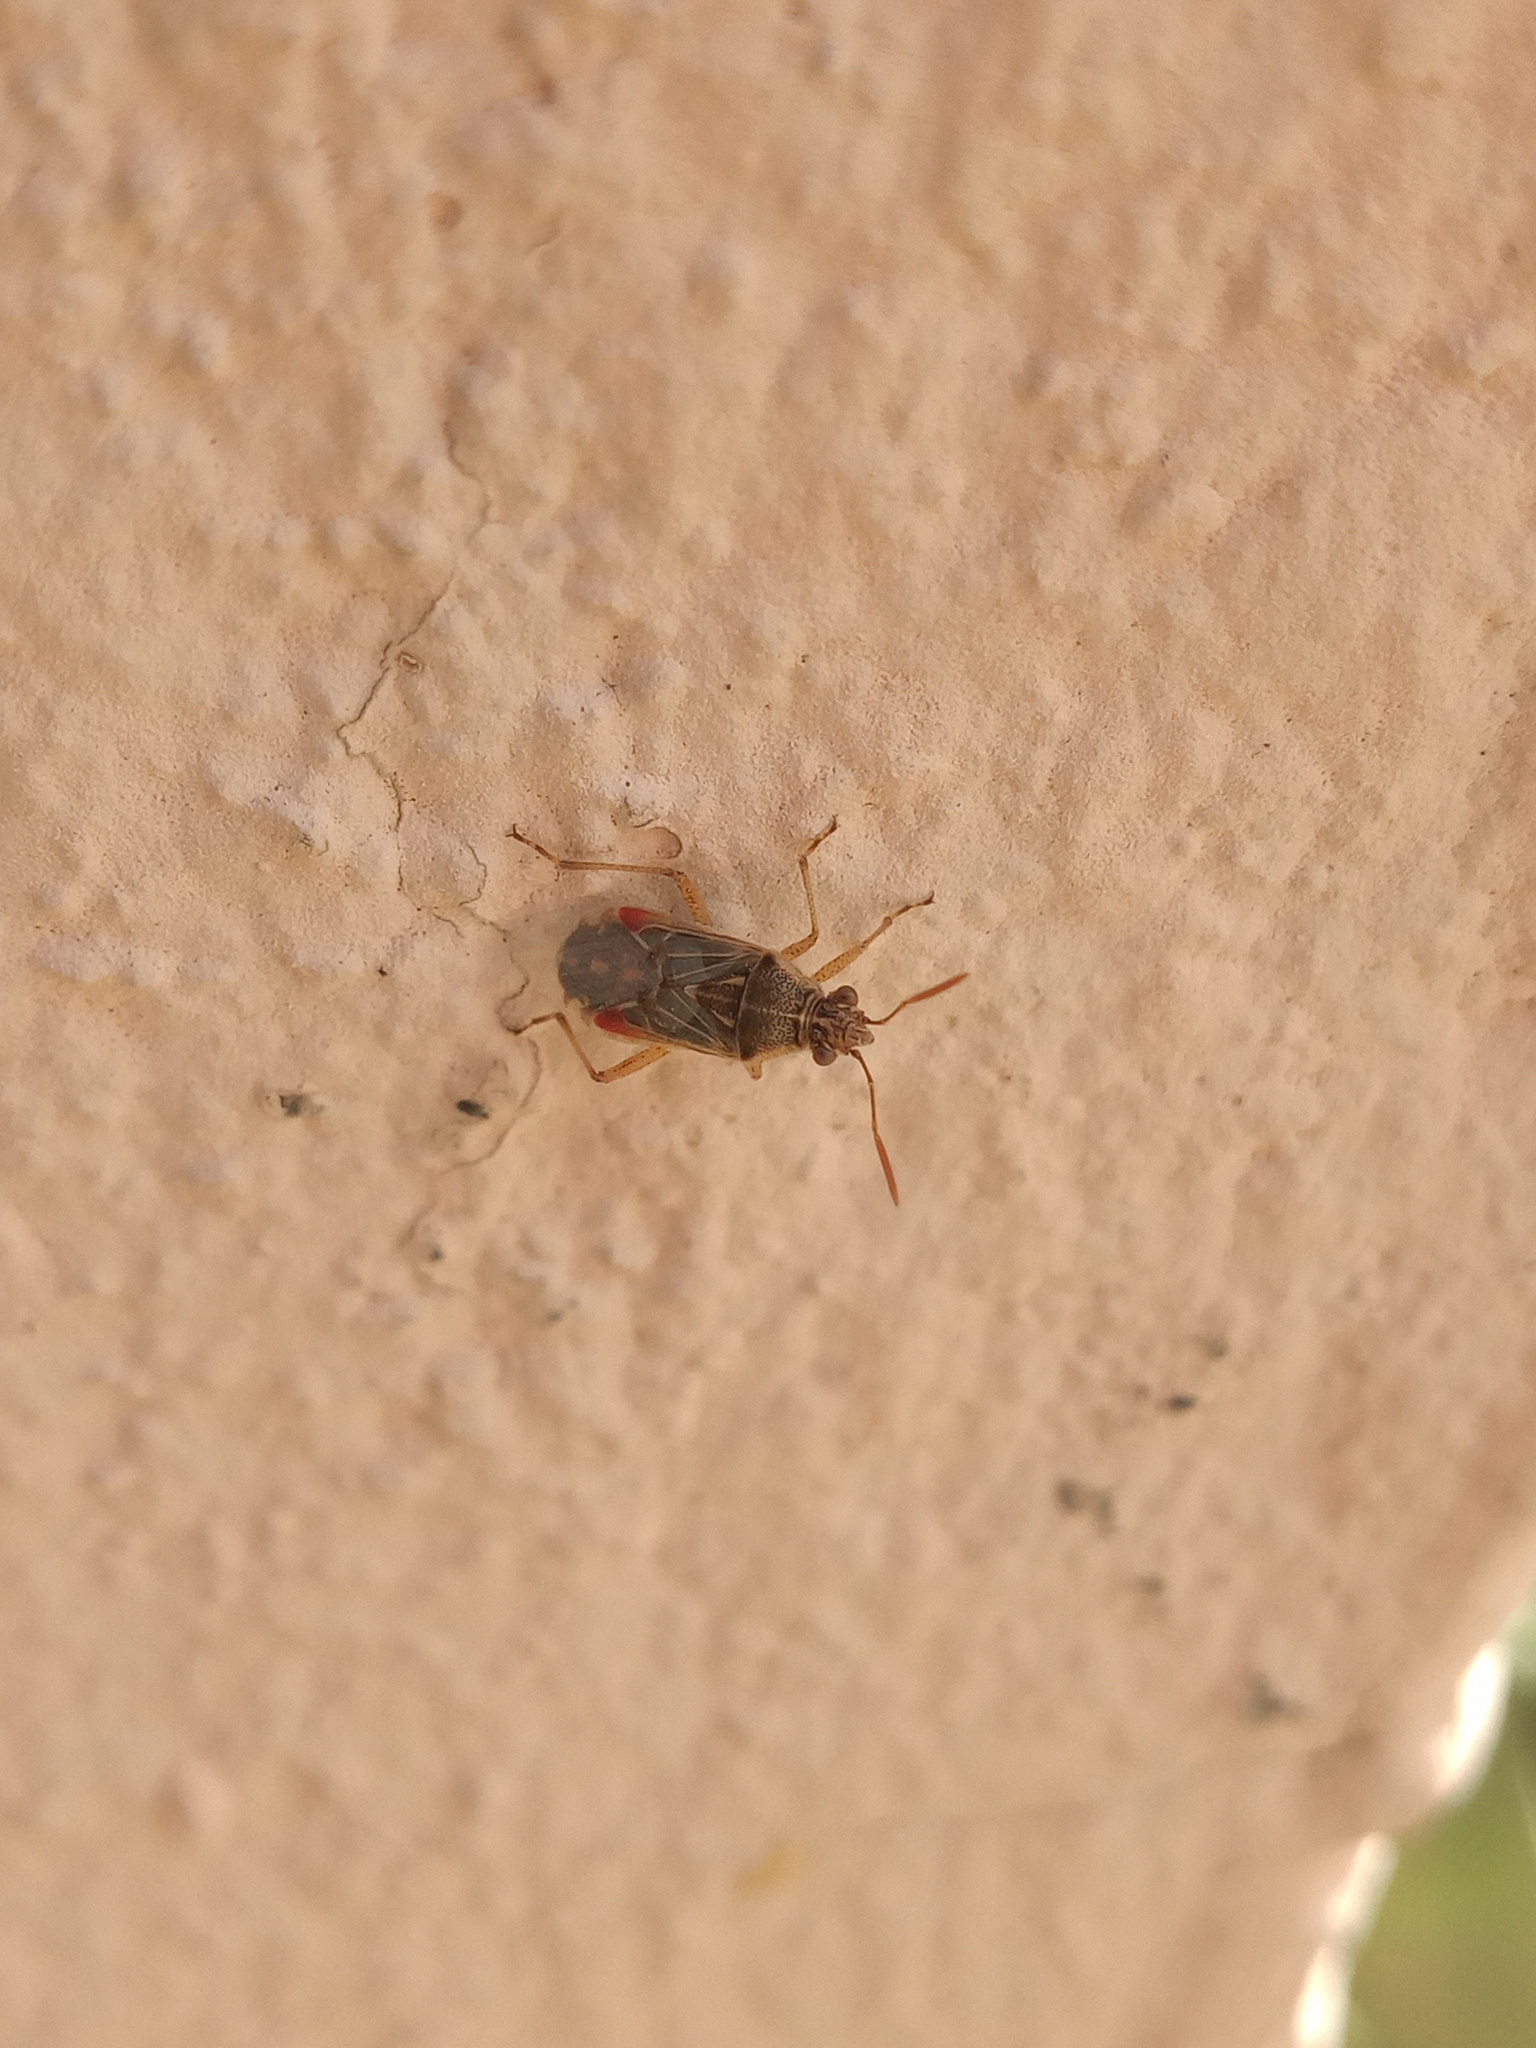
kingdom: Animalia
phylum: Arthropoda
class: Insecta
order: Hemiptera
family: Rhopalidae
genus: Liorhyssus
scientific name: Liorhyssus hyalinus
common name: Scentless plant bug
